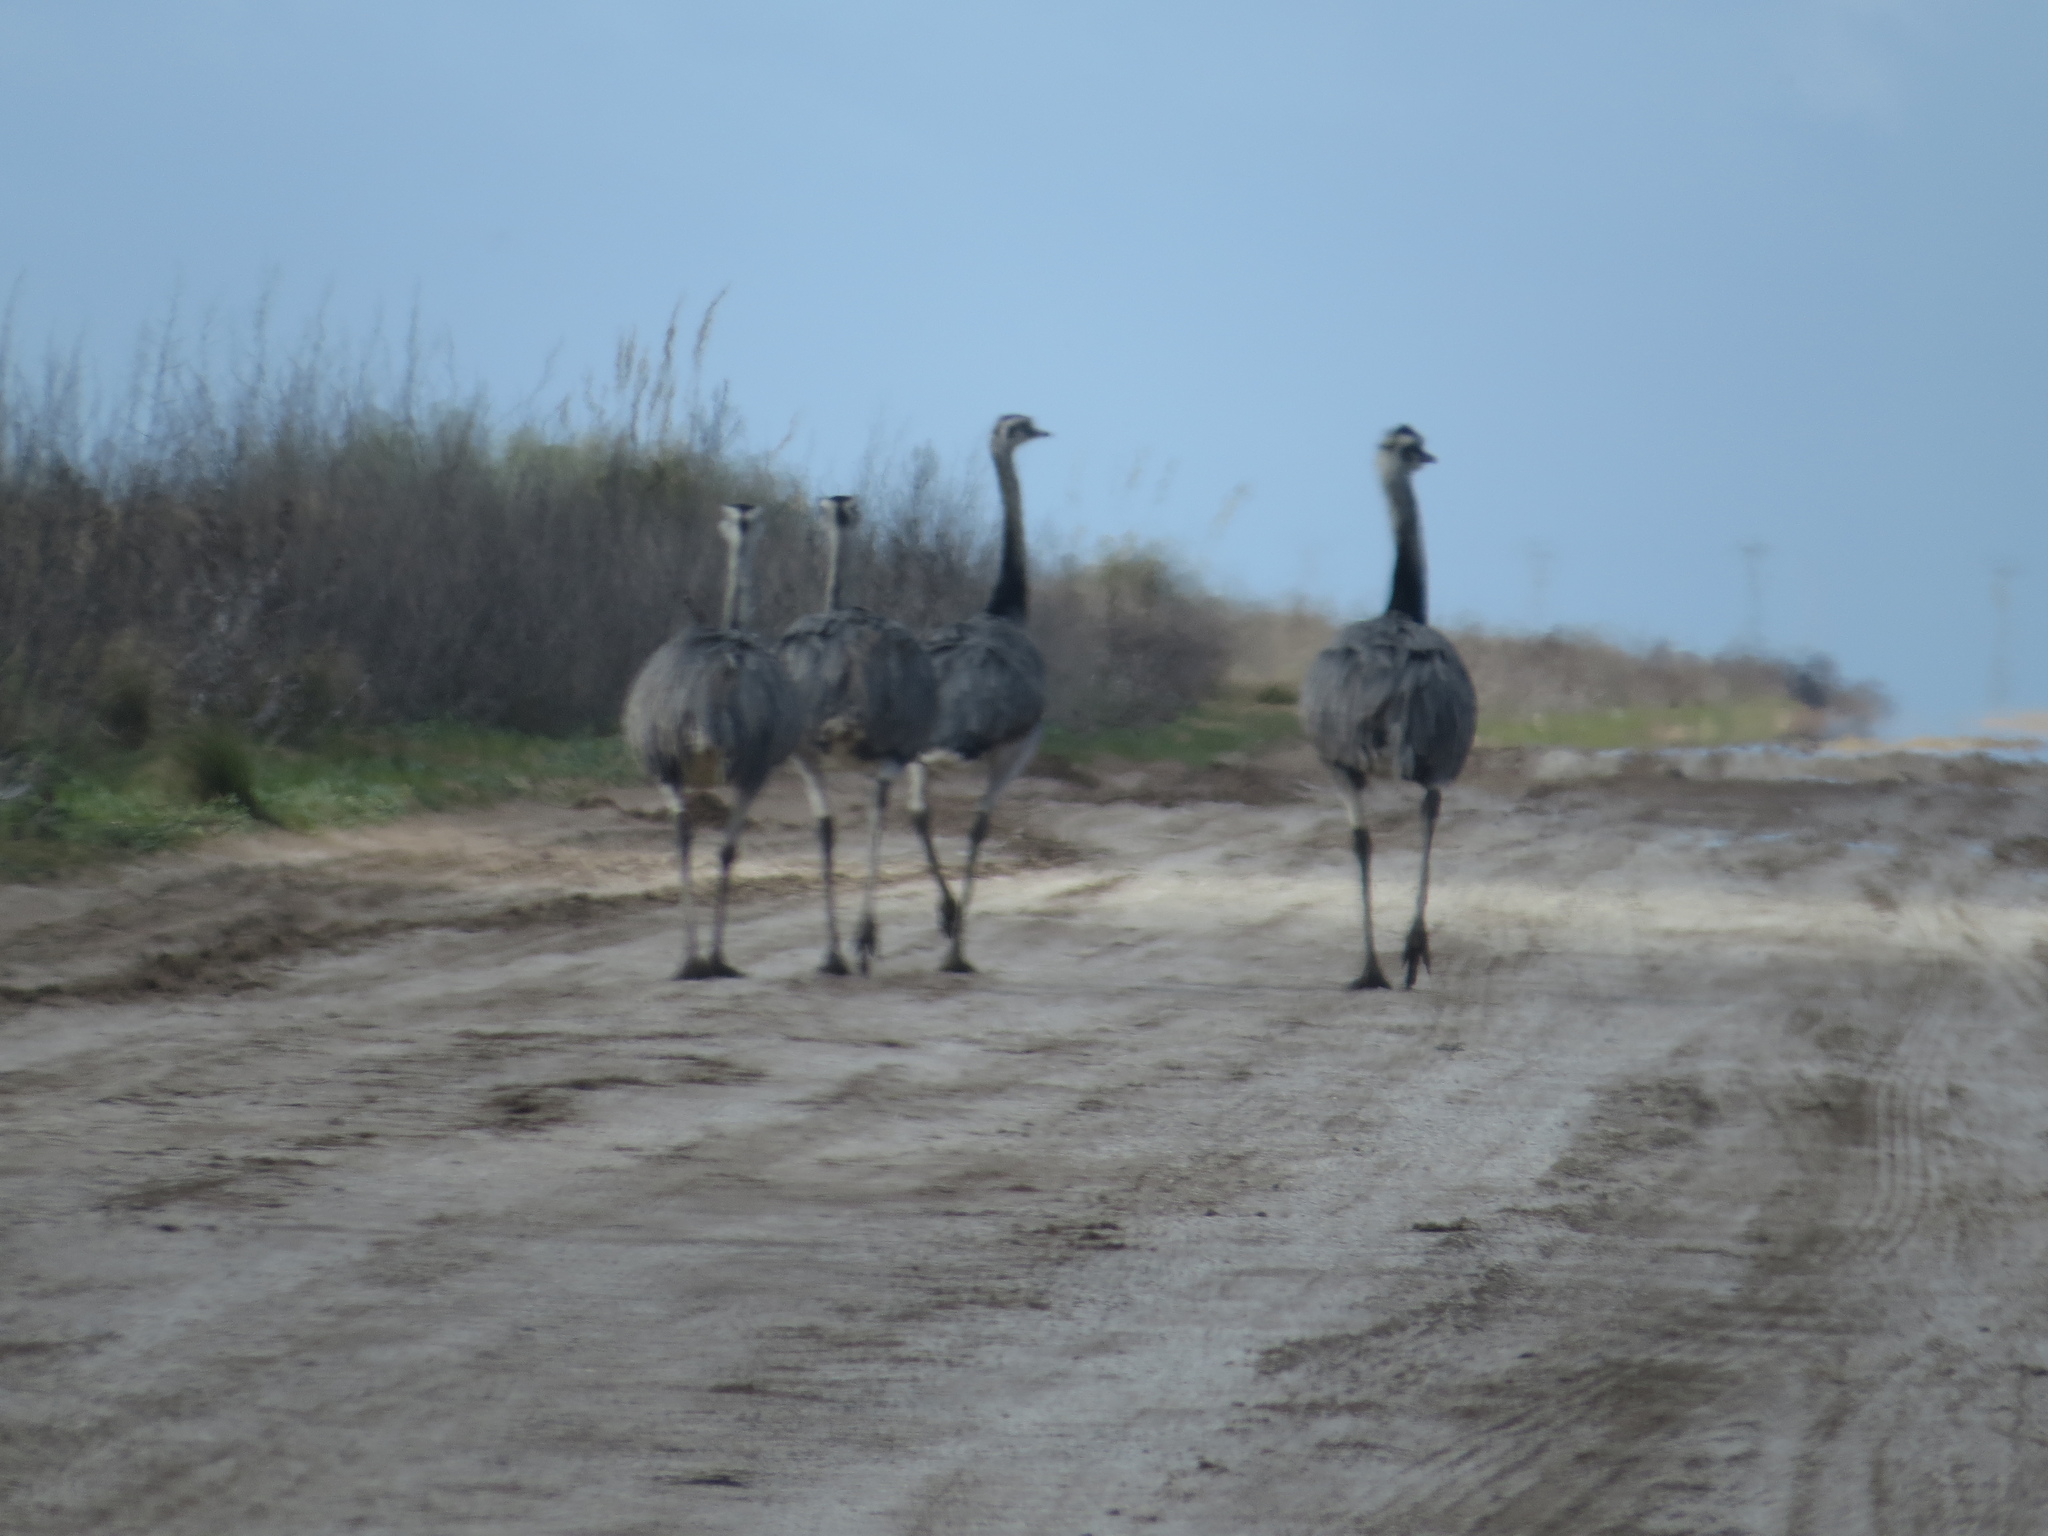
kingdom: Animalia
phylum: Chordata
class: Aves
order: Rheiformes
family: Rheidae
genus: Rhea
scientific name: Rhea americana
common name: Greater rhea
